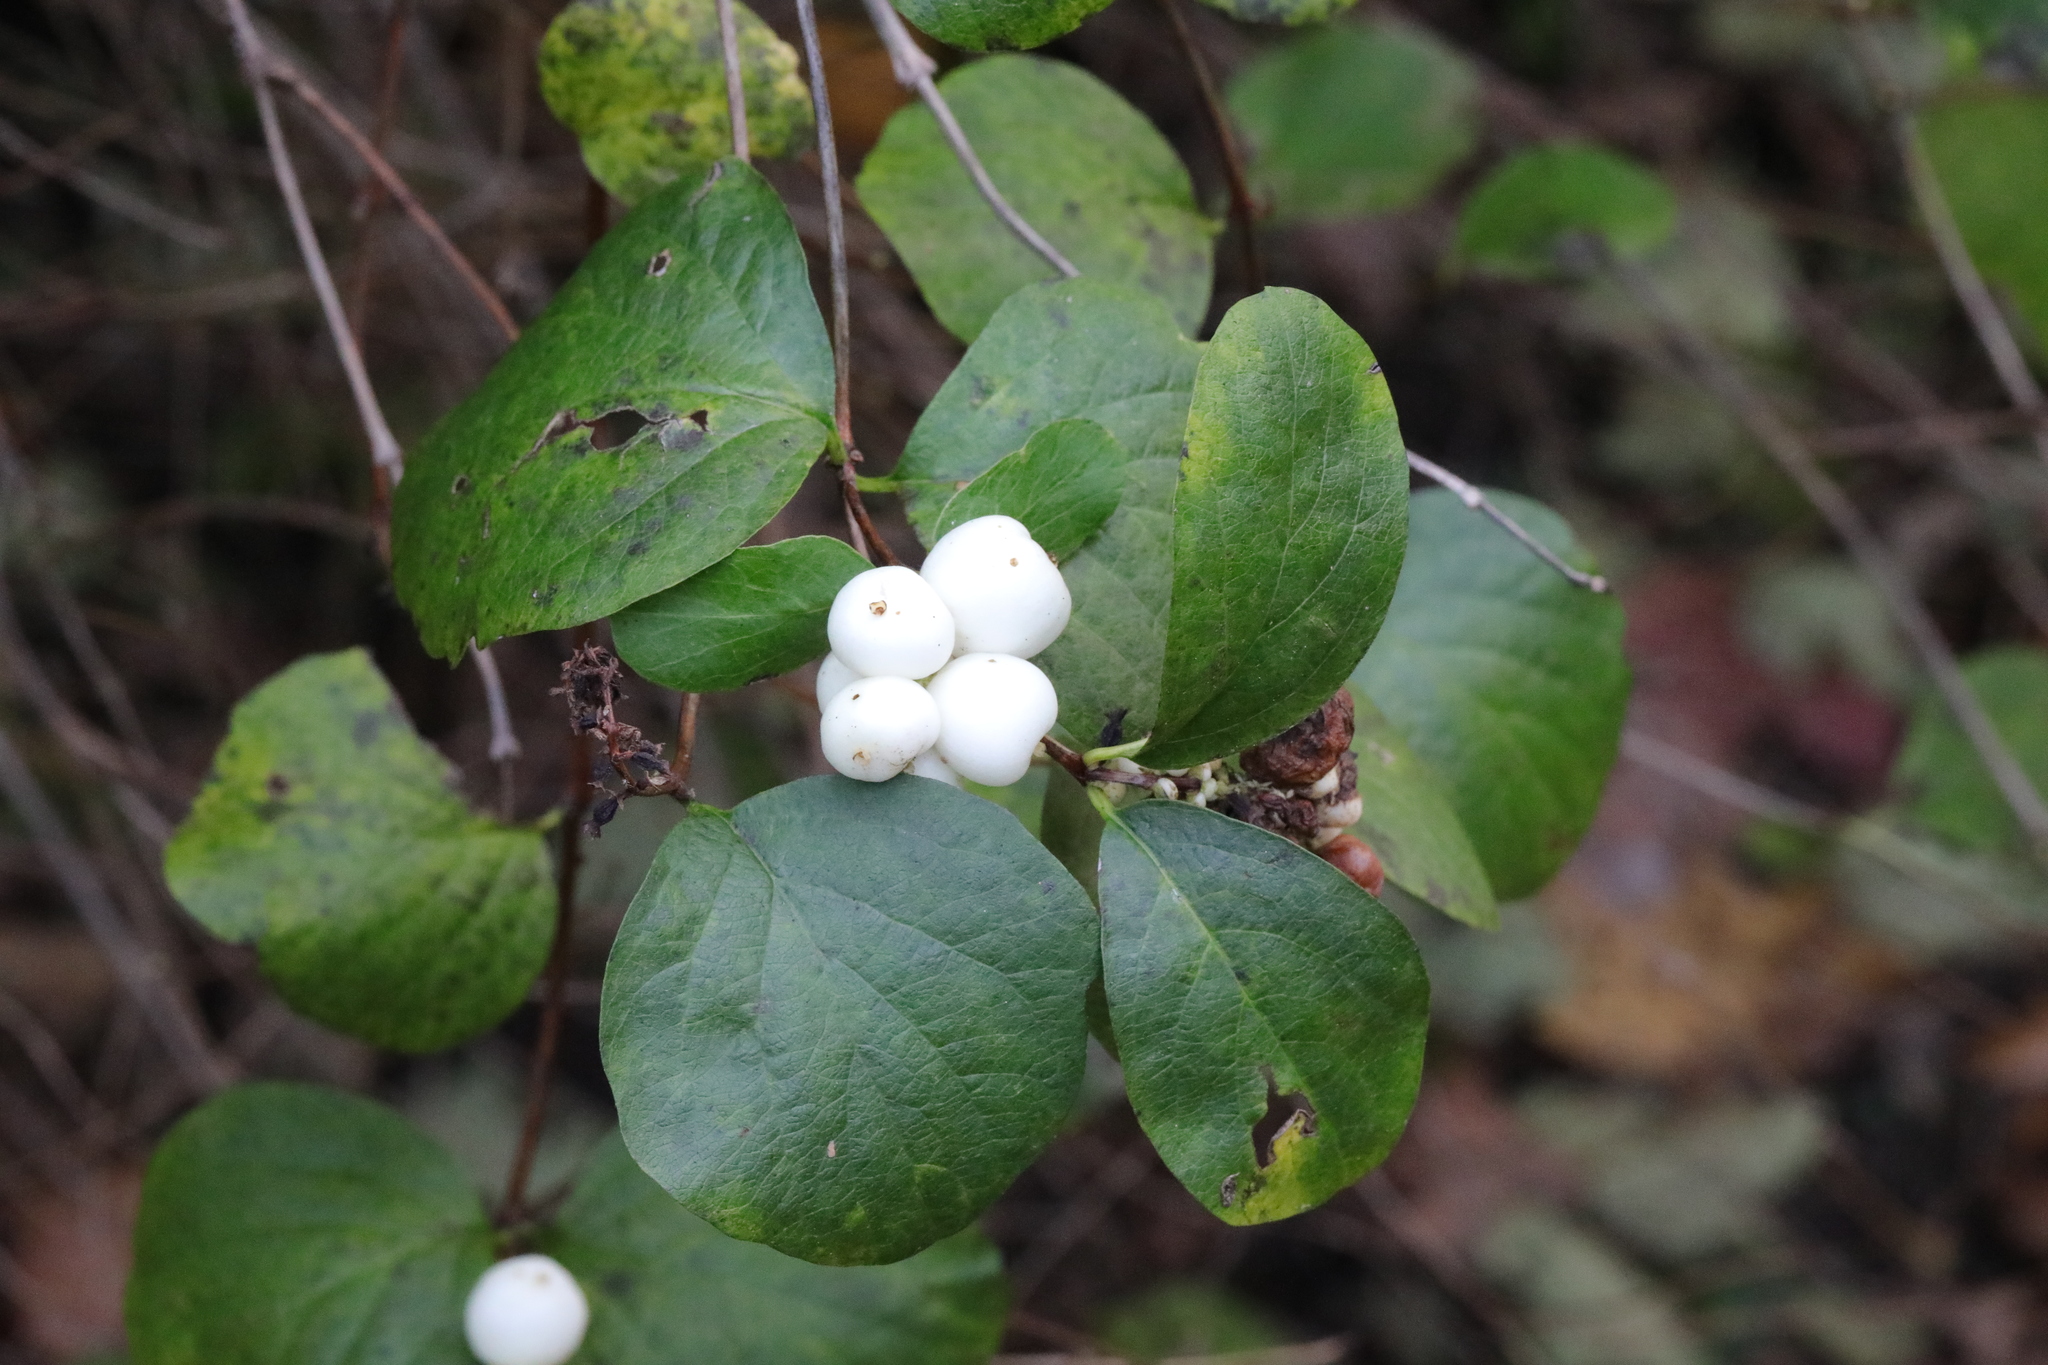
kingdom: Plantae
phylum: Tracheophyta
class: Magnoliopsida
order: Dipsacales
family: Caprifoliaceae
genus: Symphoricarpos
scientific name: Symphoricarpos albus
